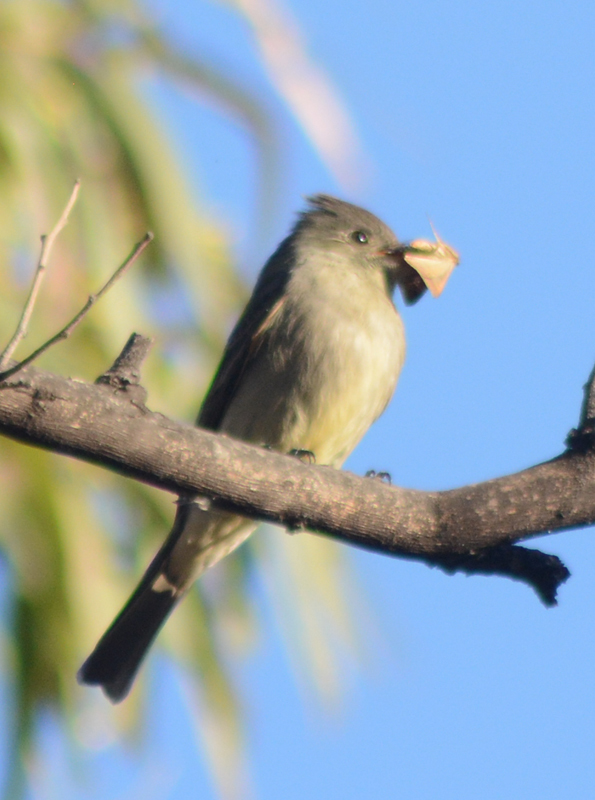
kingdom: Animalia
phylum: Chordata
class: Aves
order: Passeriformes
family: Tyrannidae
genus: Contopus
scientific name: Contopus pertinax
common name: Greater pewee
